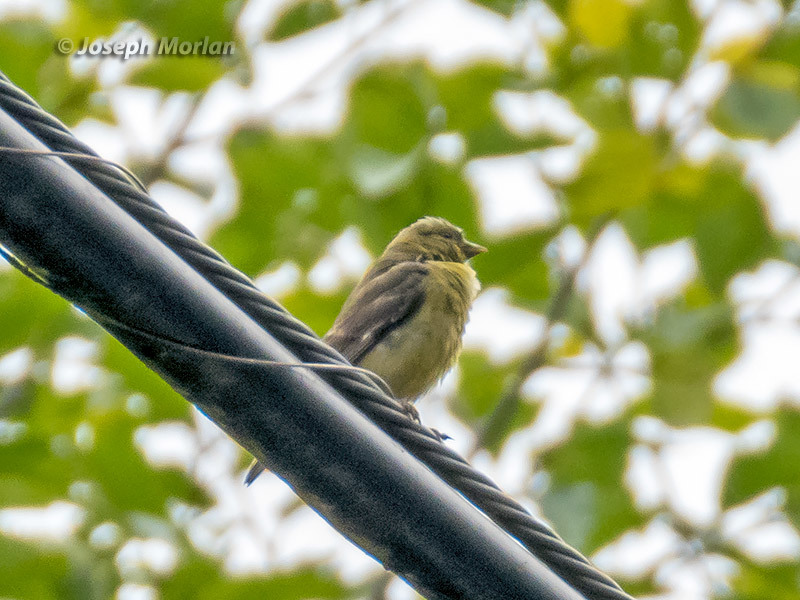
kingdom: Animalia
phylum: Chordata
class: Aves
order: Passeriformes
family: Fringillidae
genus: Spinus
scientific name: Spinus psaltria
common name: Lesser goldfinch
